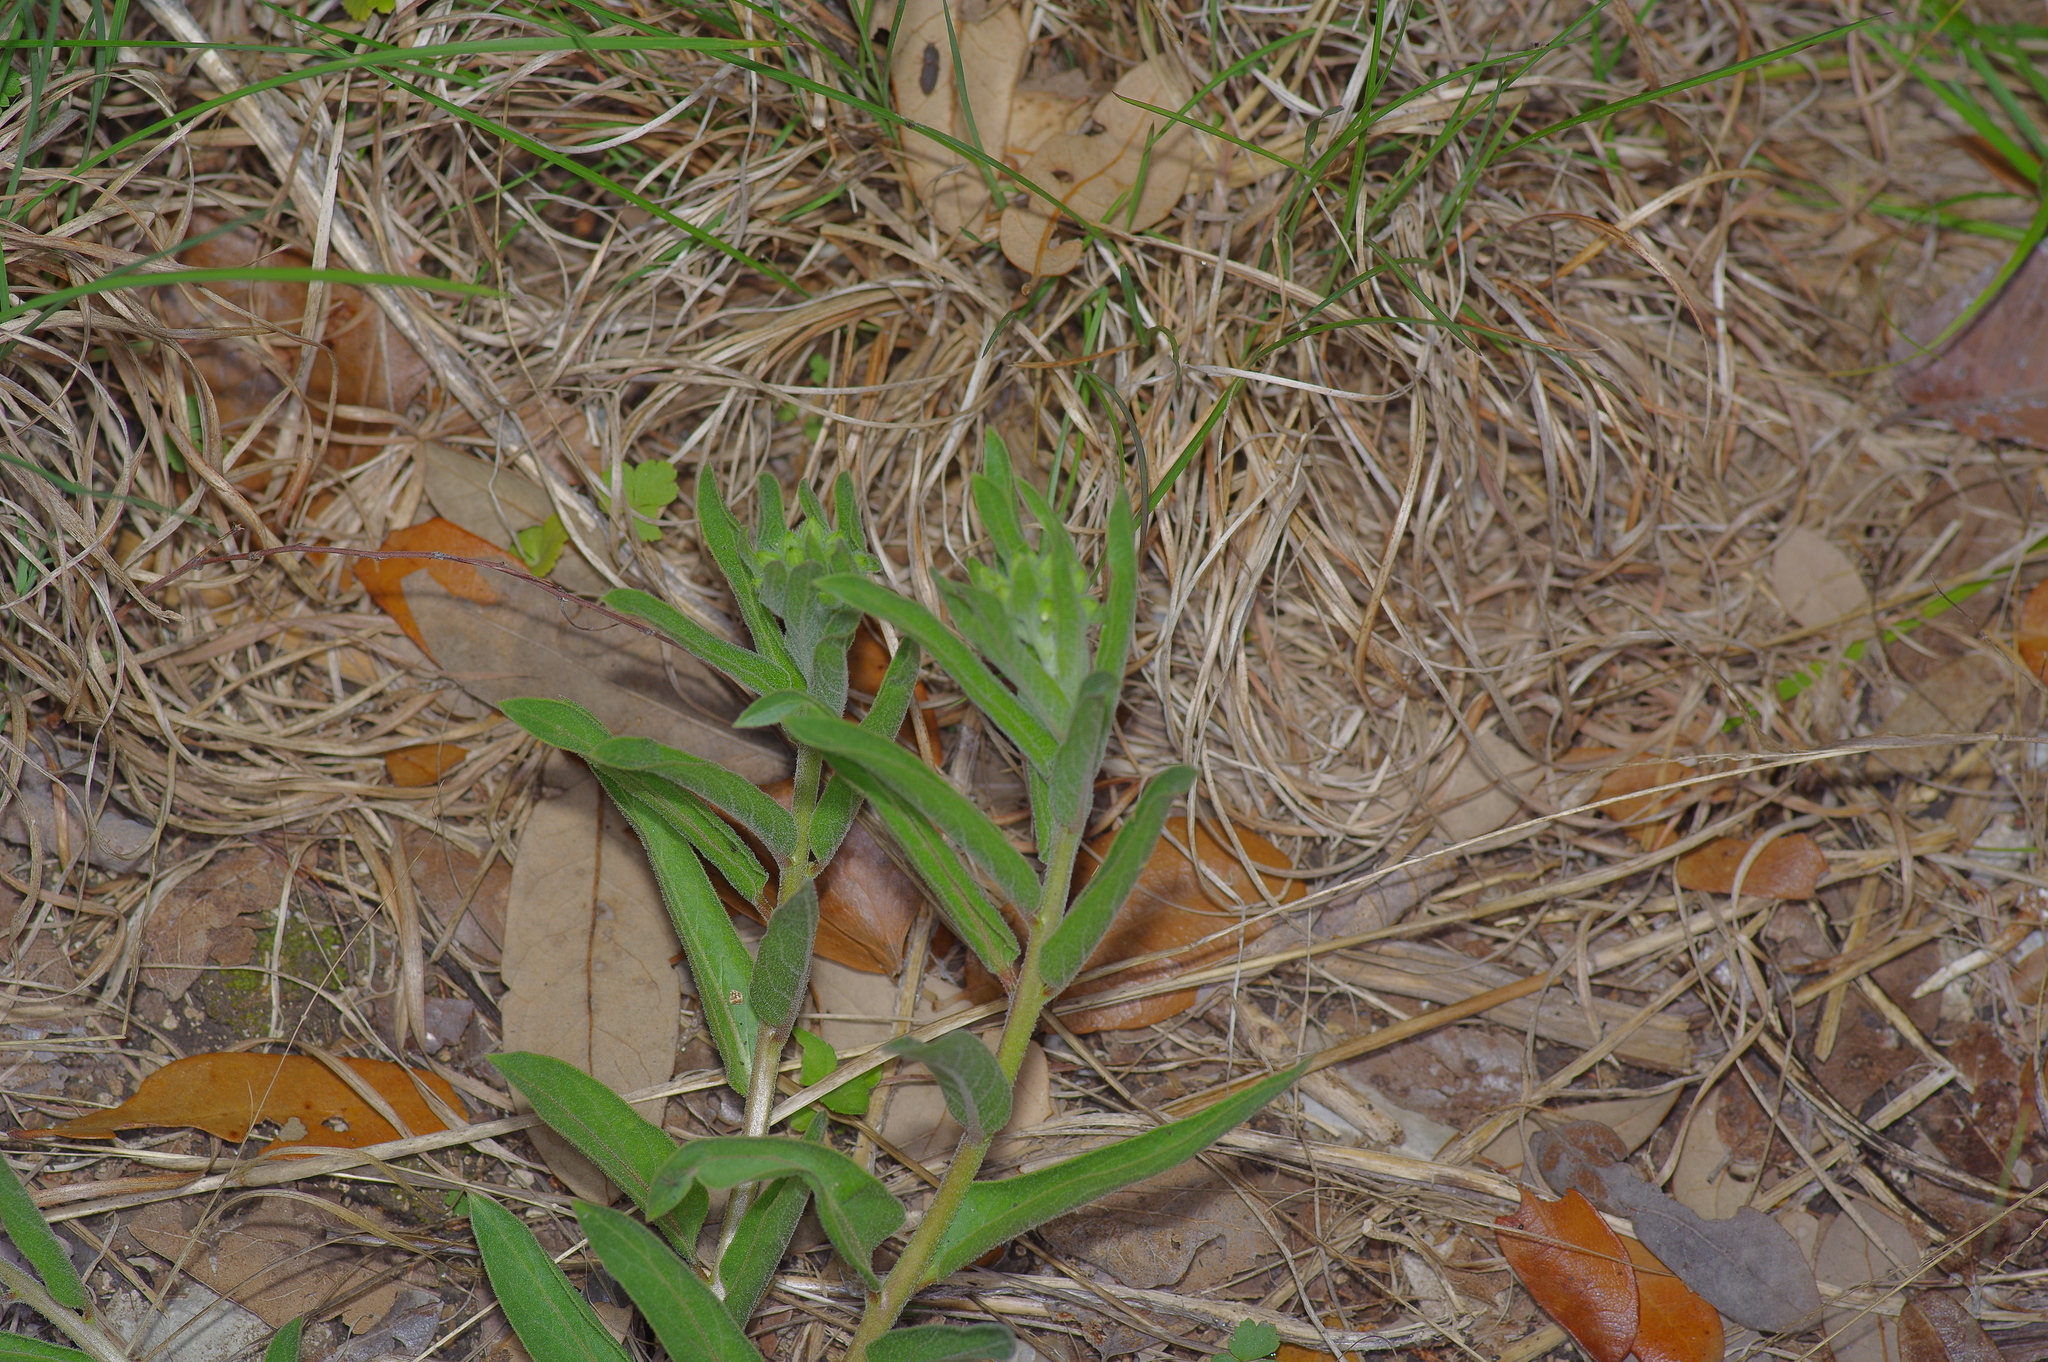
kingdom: Plantae
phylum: Tracheophyta
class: Magnoliopsida
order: Gentianales
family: Apocynaceae
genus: Asclepias
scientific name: Asclepias asperula
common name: Antelope horns
